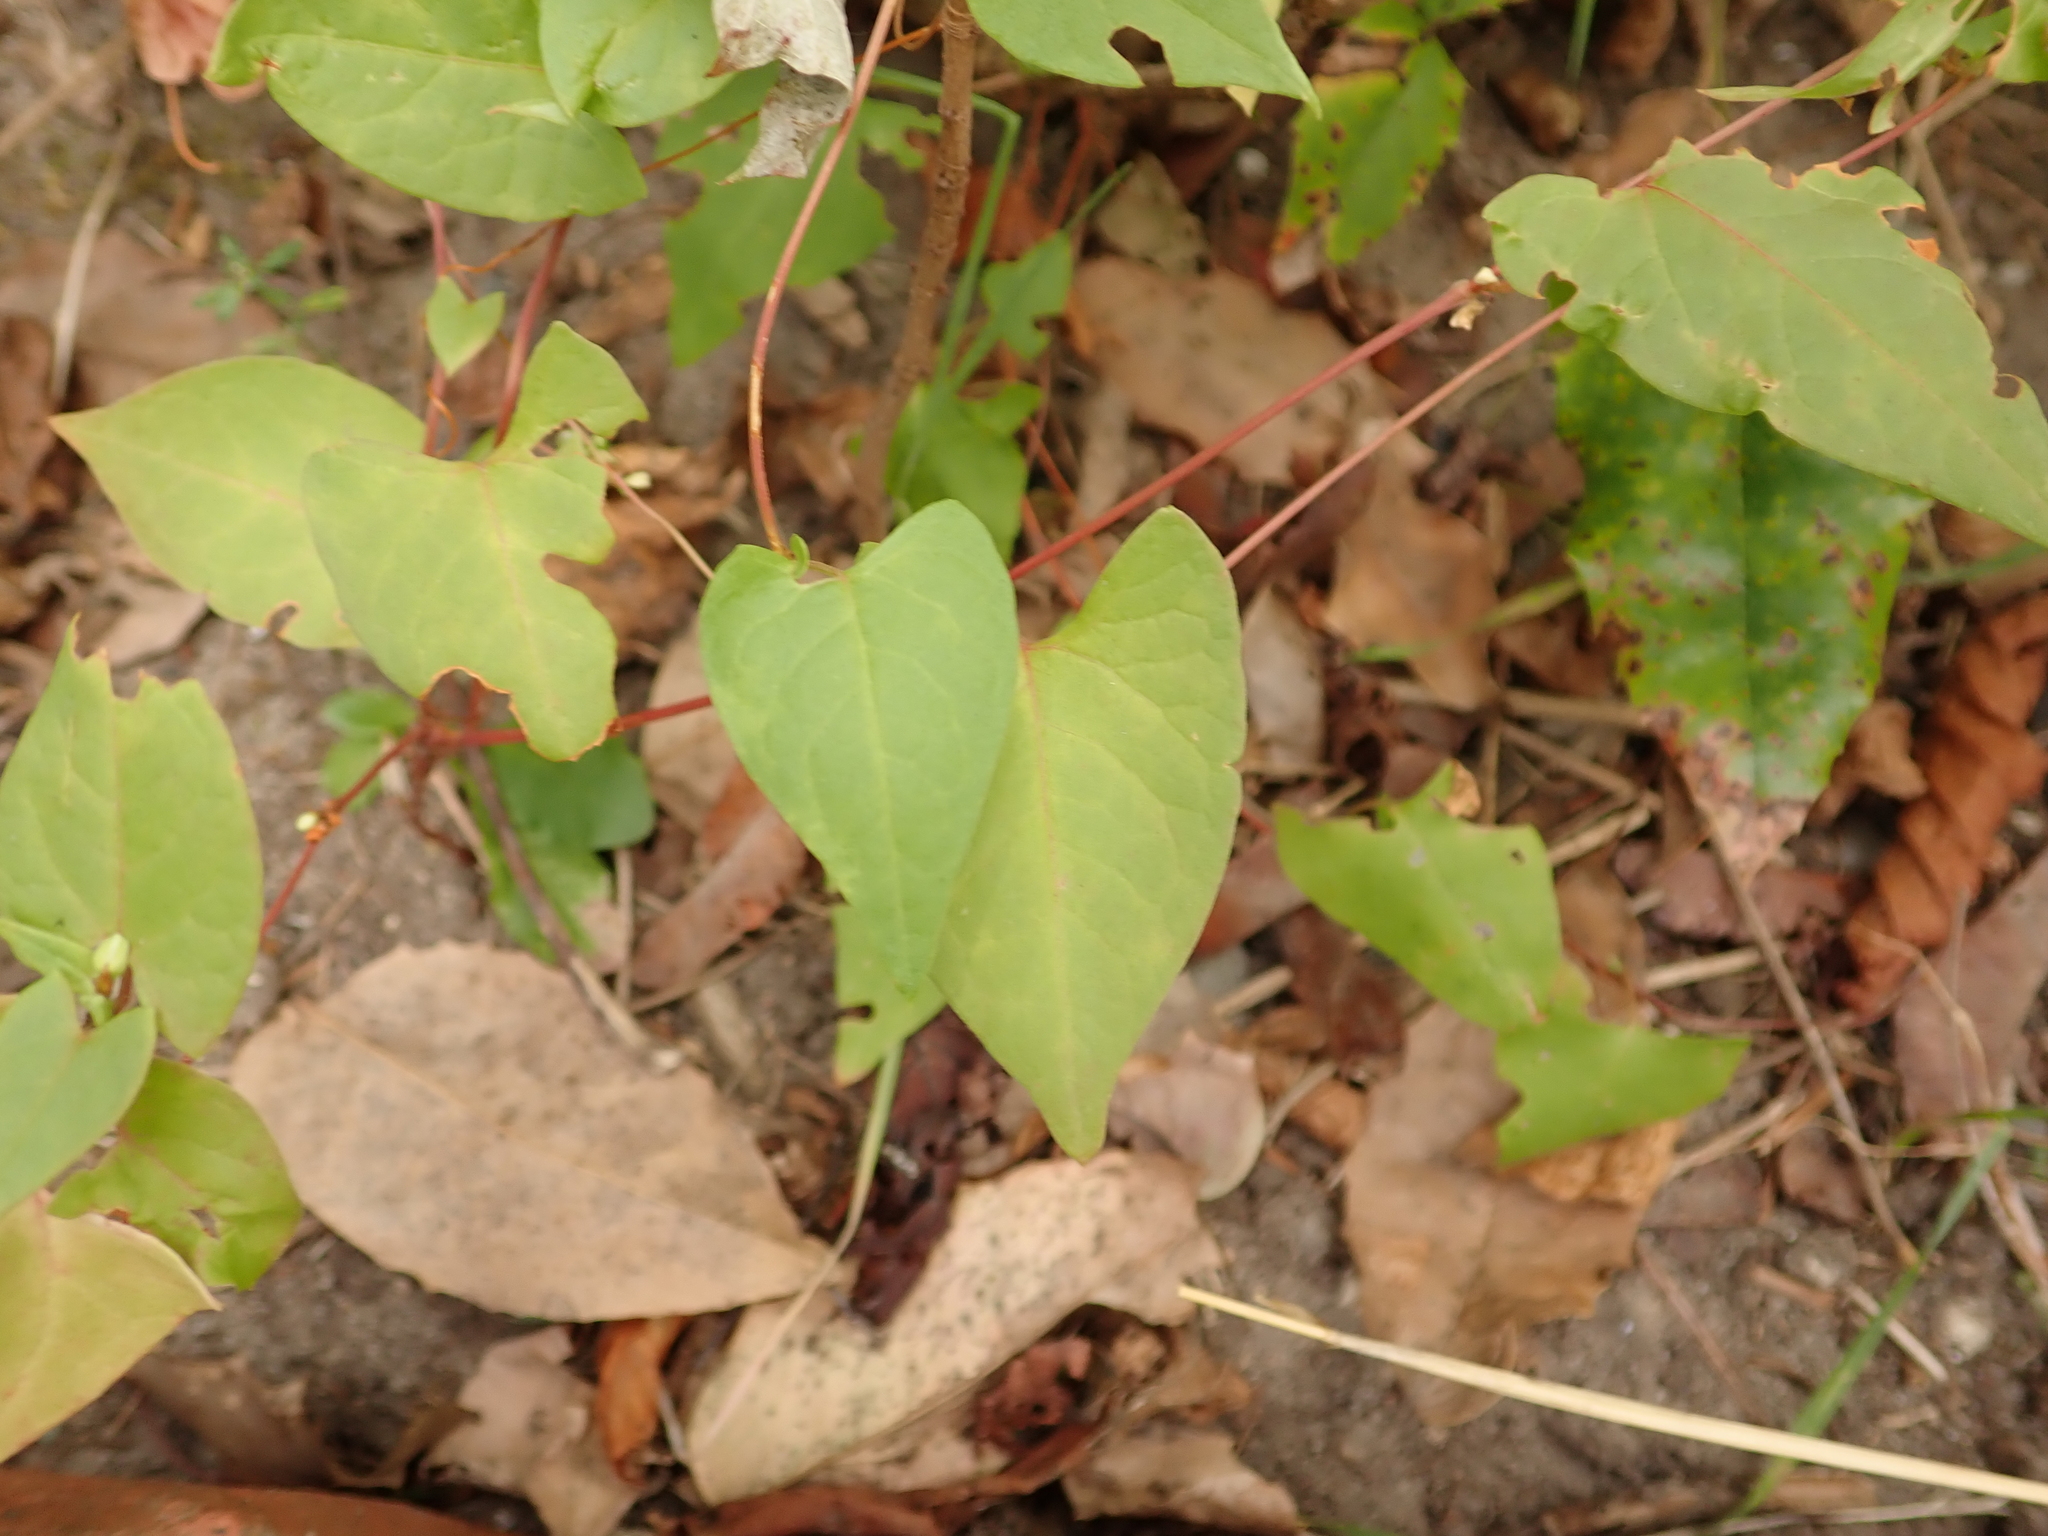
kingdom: Plantae
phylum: Tracheophyta
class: Magnoliopsida
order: Caryophyllales
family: Polygonaceae
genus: Fallopia
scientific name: Fallopia convolvulus
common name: Black bindweed
